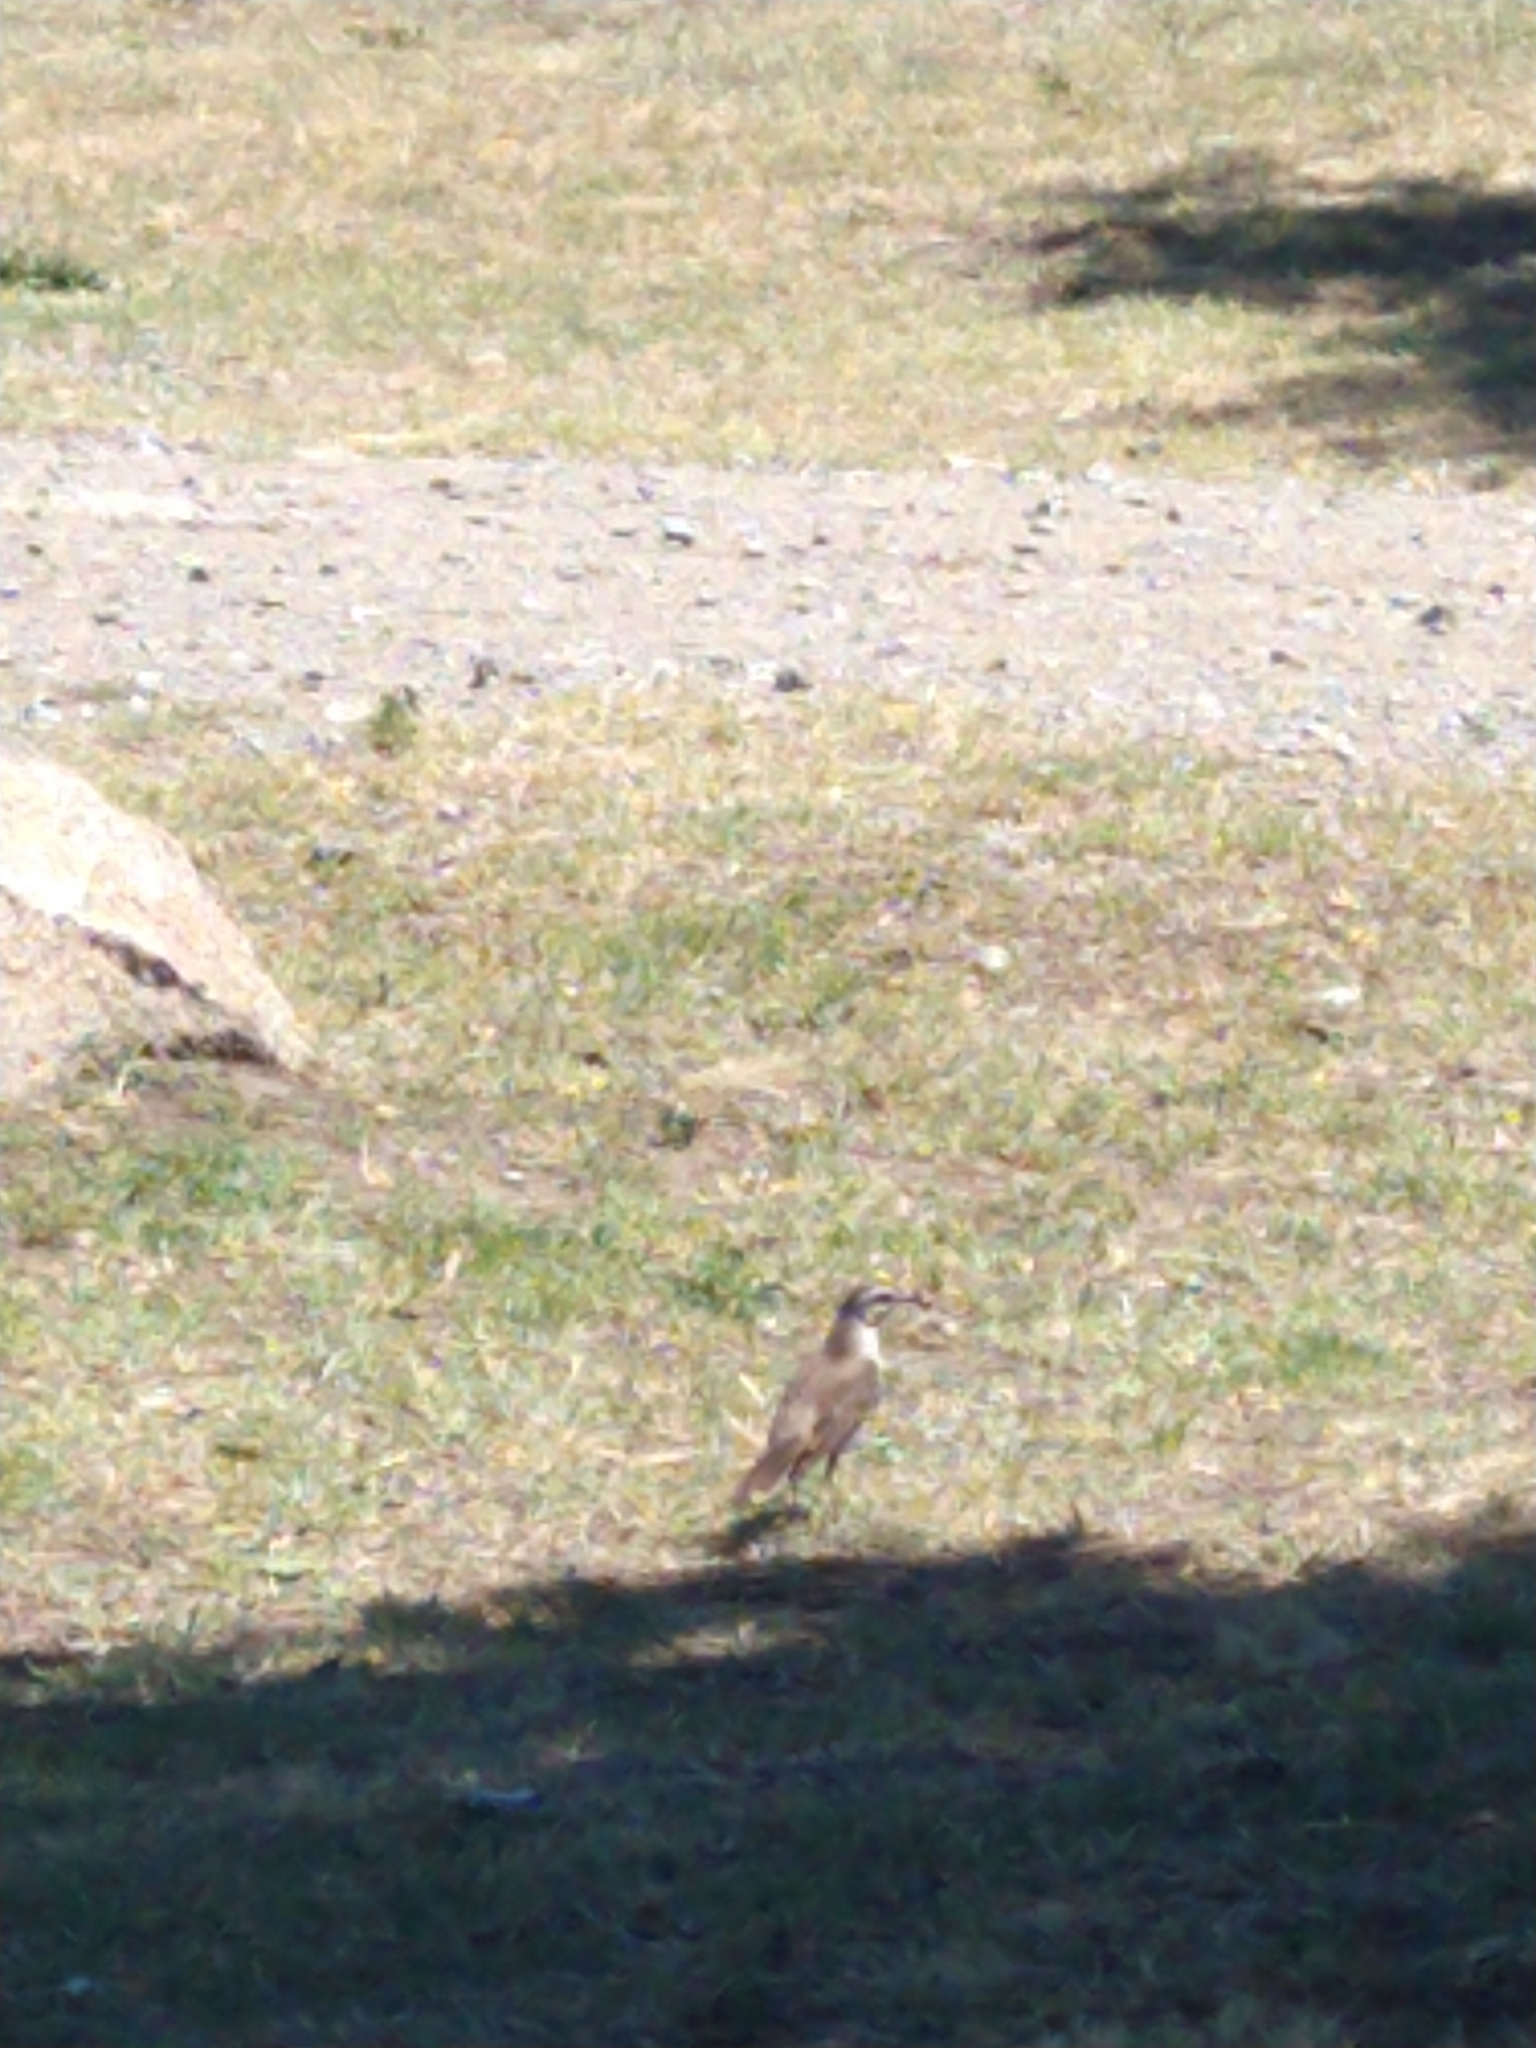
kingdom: Animalia
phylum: Chordata
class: Aves
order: Passeriformes
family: Mimidae
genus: Mimus
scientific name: Mimus saturninus
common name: Chalk-browed mockingbird
